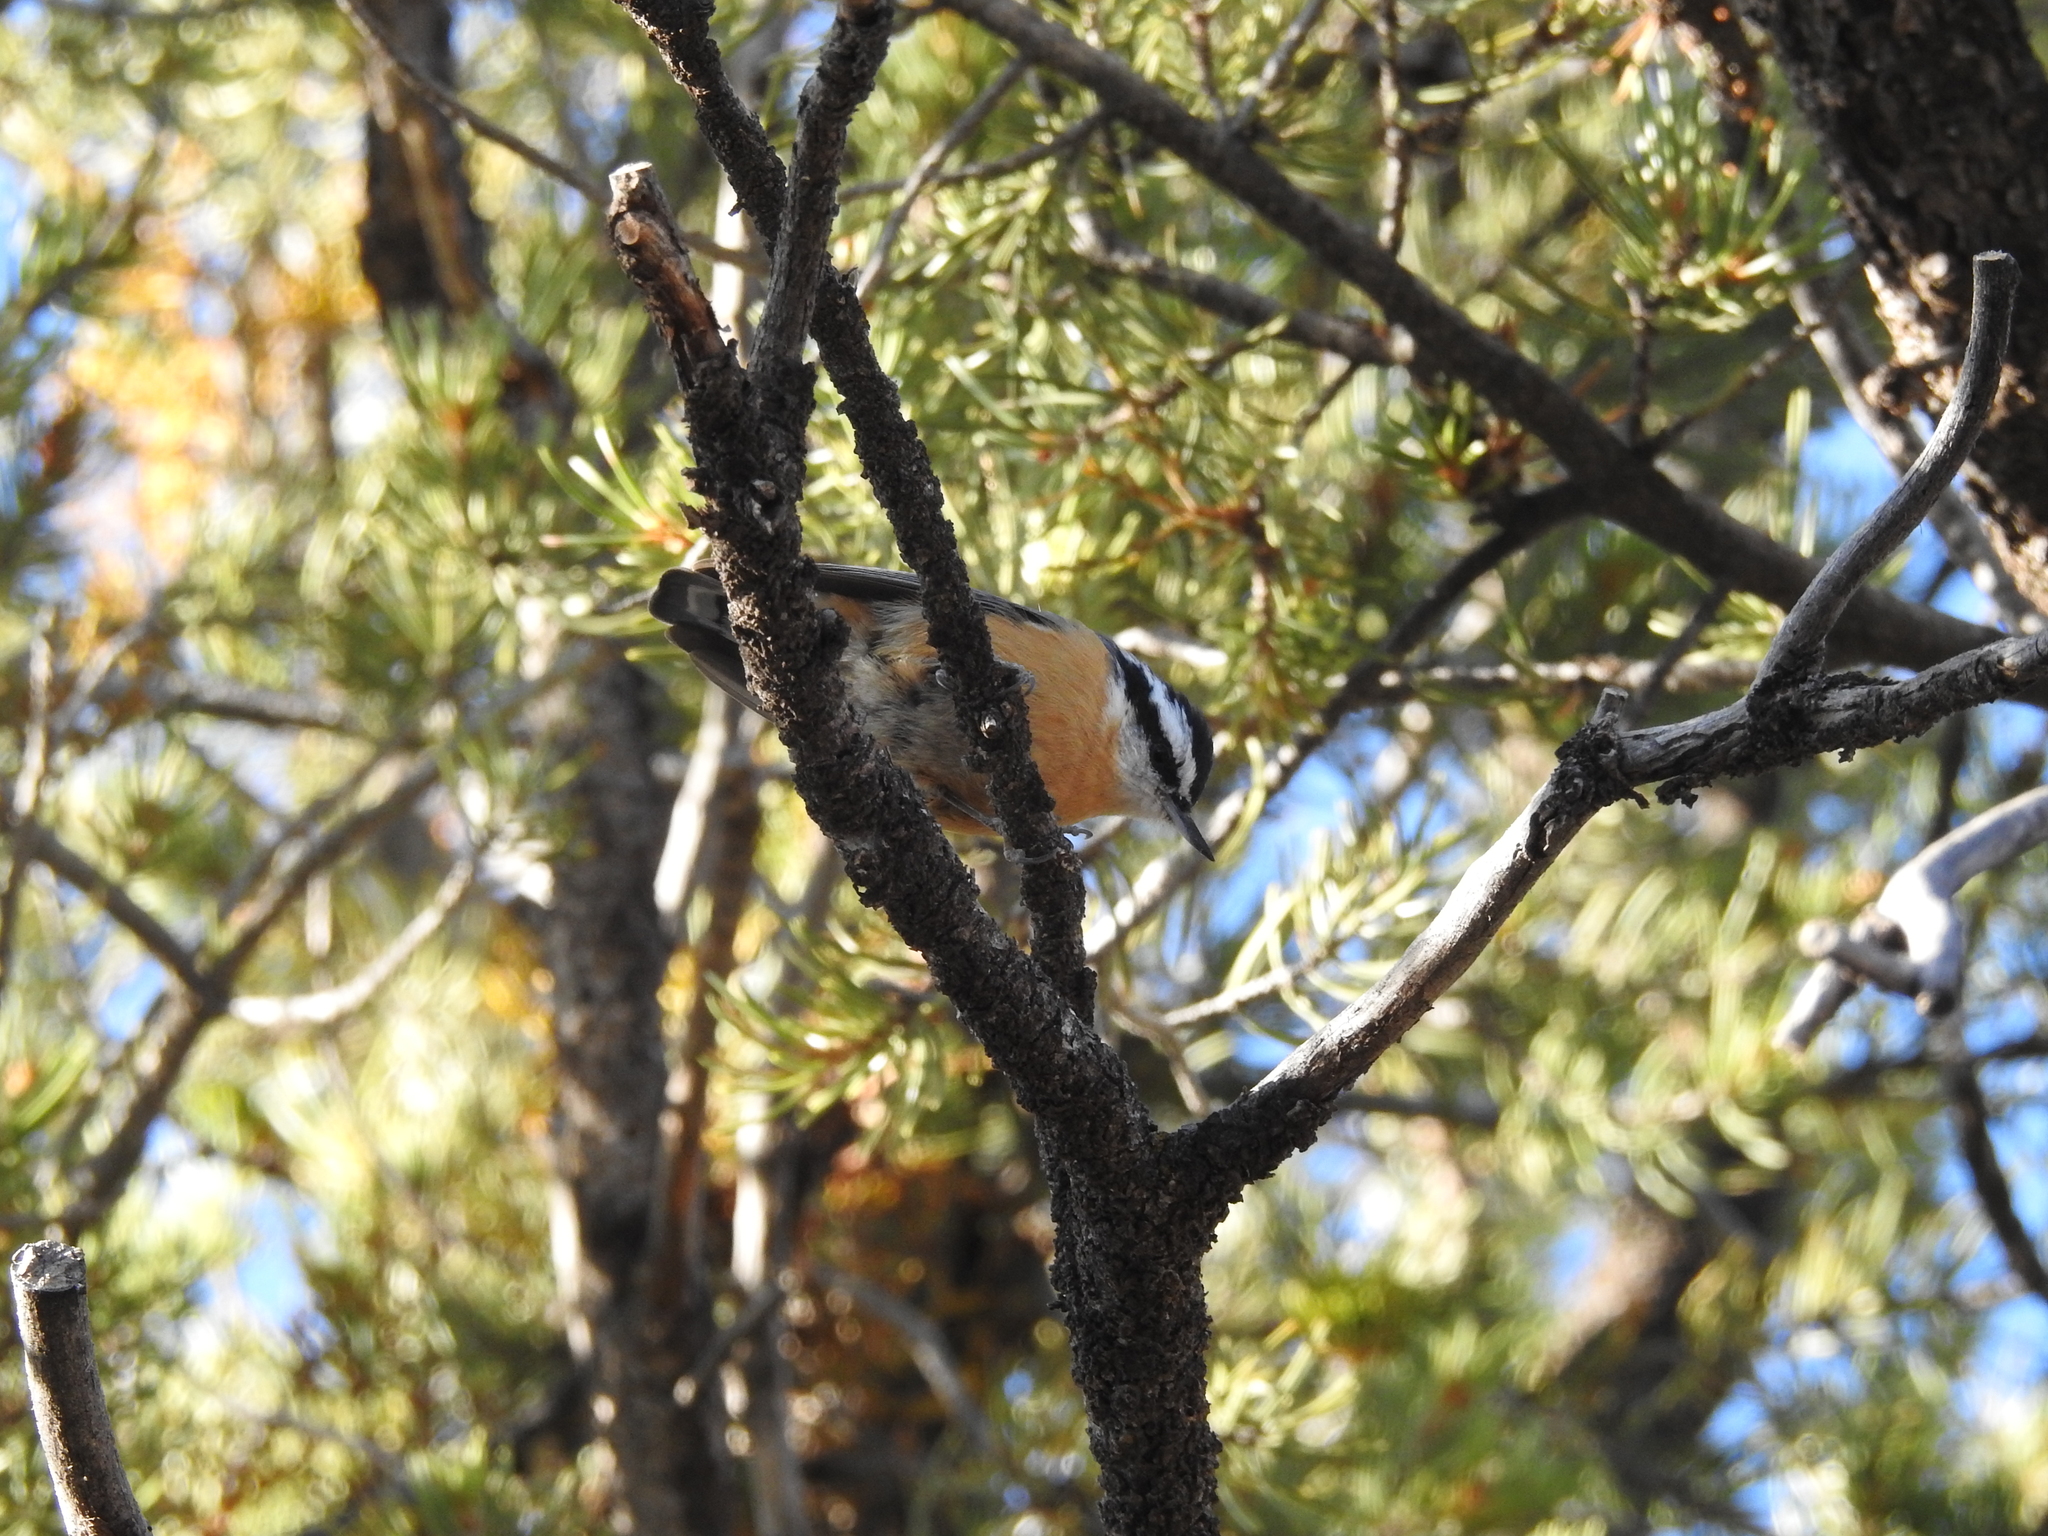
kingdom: Animalia
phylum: Chordata
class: Aves
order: Passeriformes
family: Sittidae
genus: Sitta
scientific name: Sitta canadensis
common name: Red-breasted nuthatch
